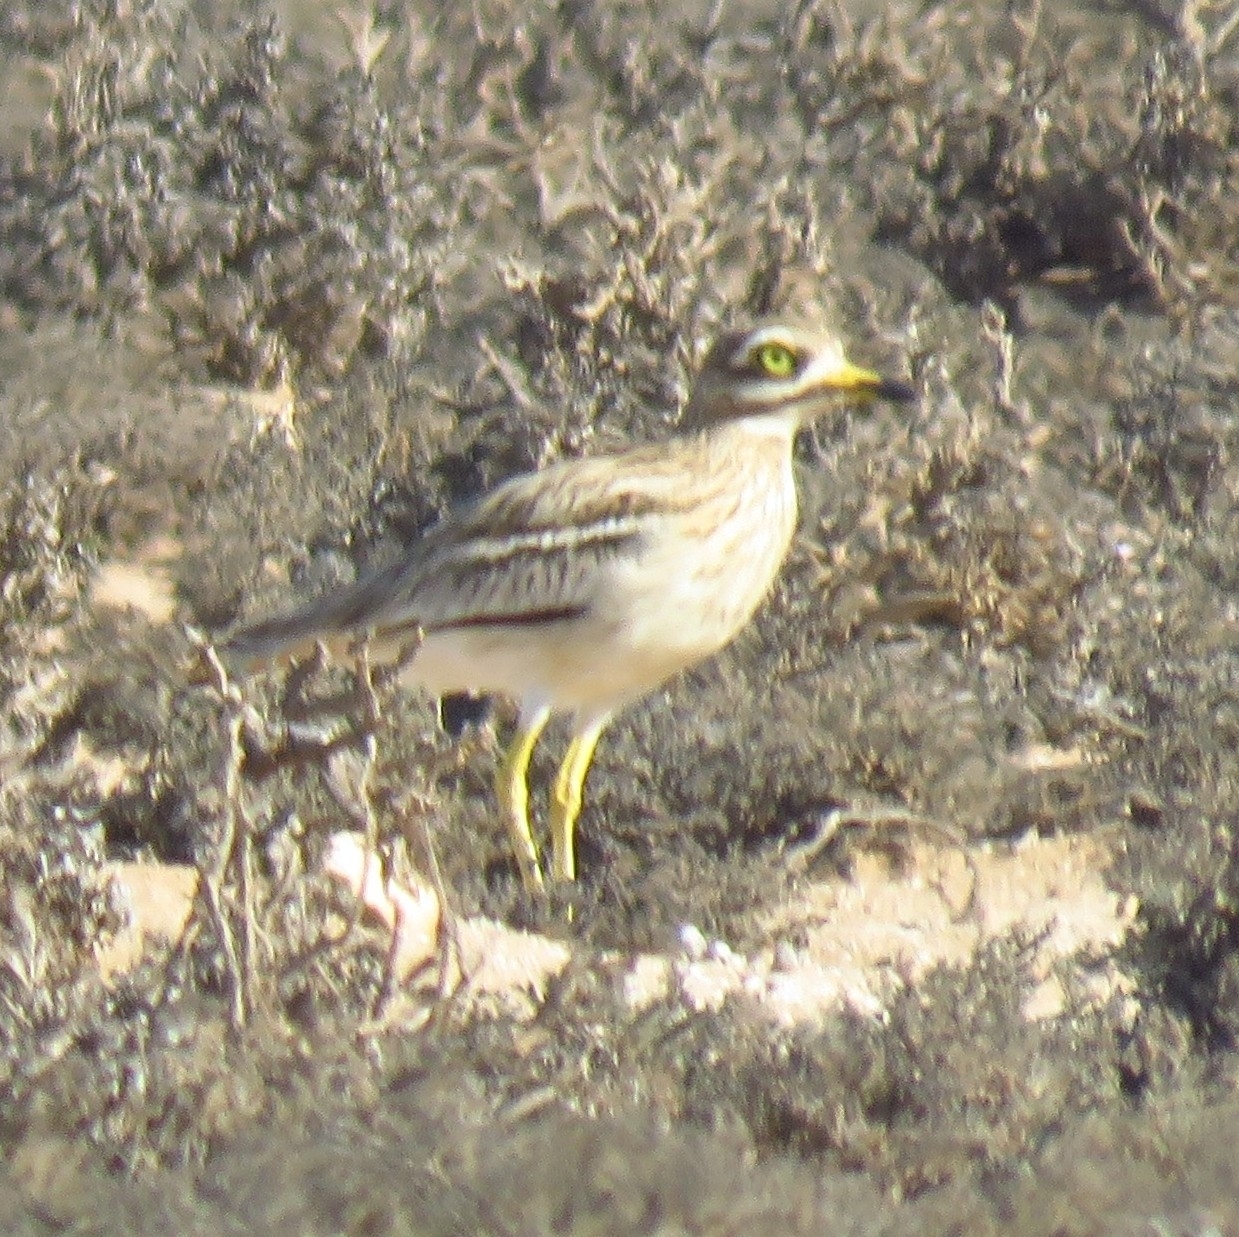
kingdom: Animalia
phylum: Chordata
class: Aves
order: Charadriiformes
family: Burhinidae
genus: Burhinus
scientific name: Burhinus oedicnemus
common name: Eurasian stone-curlew
